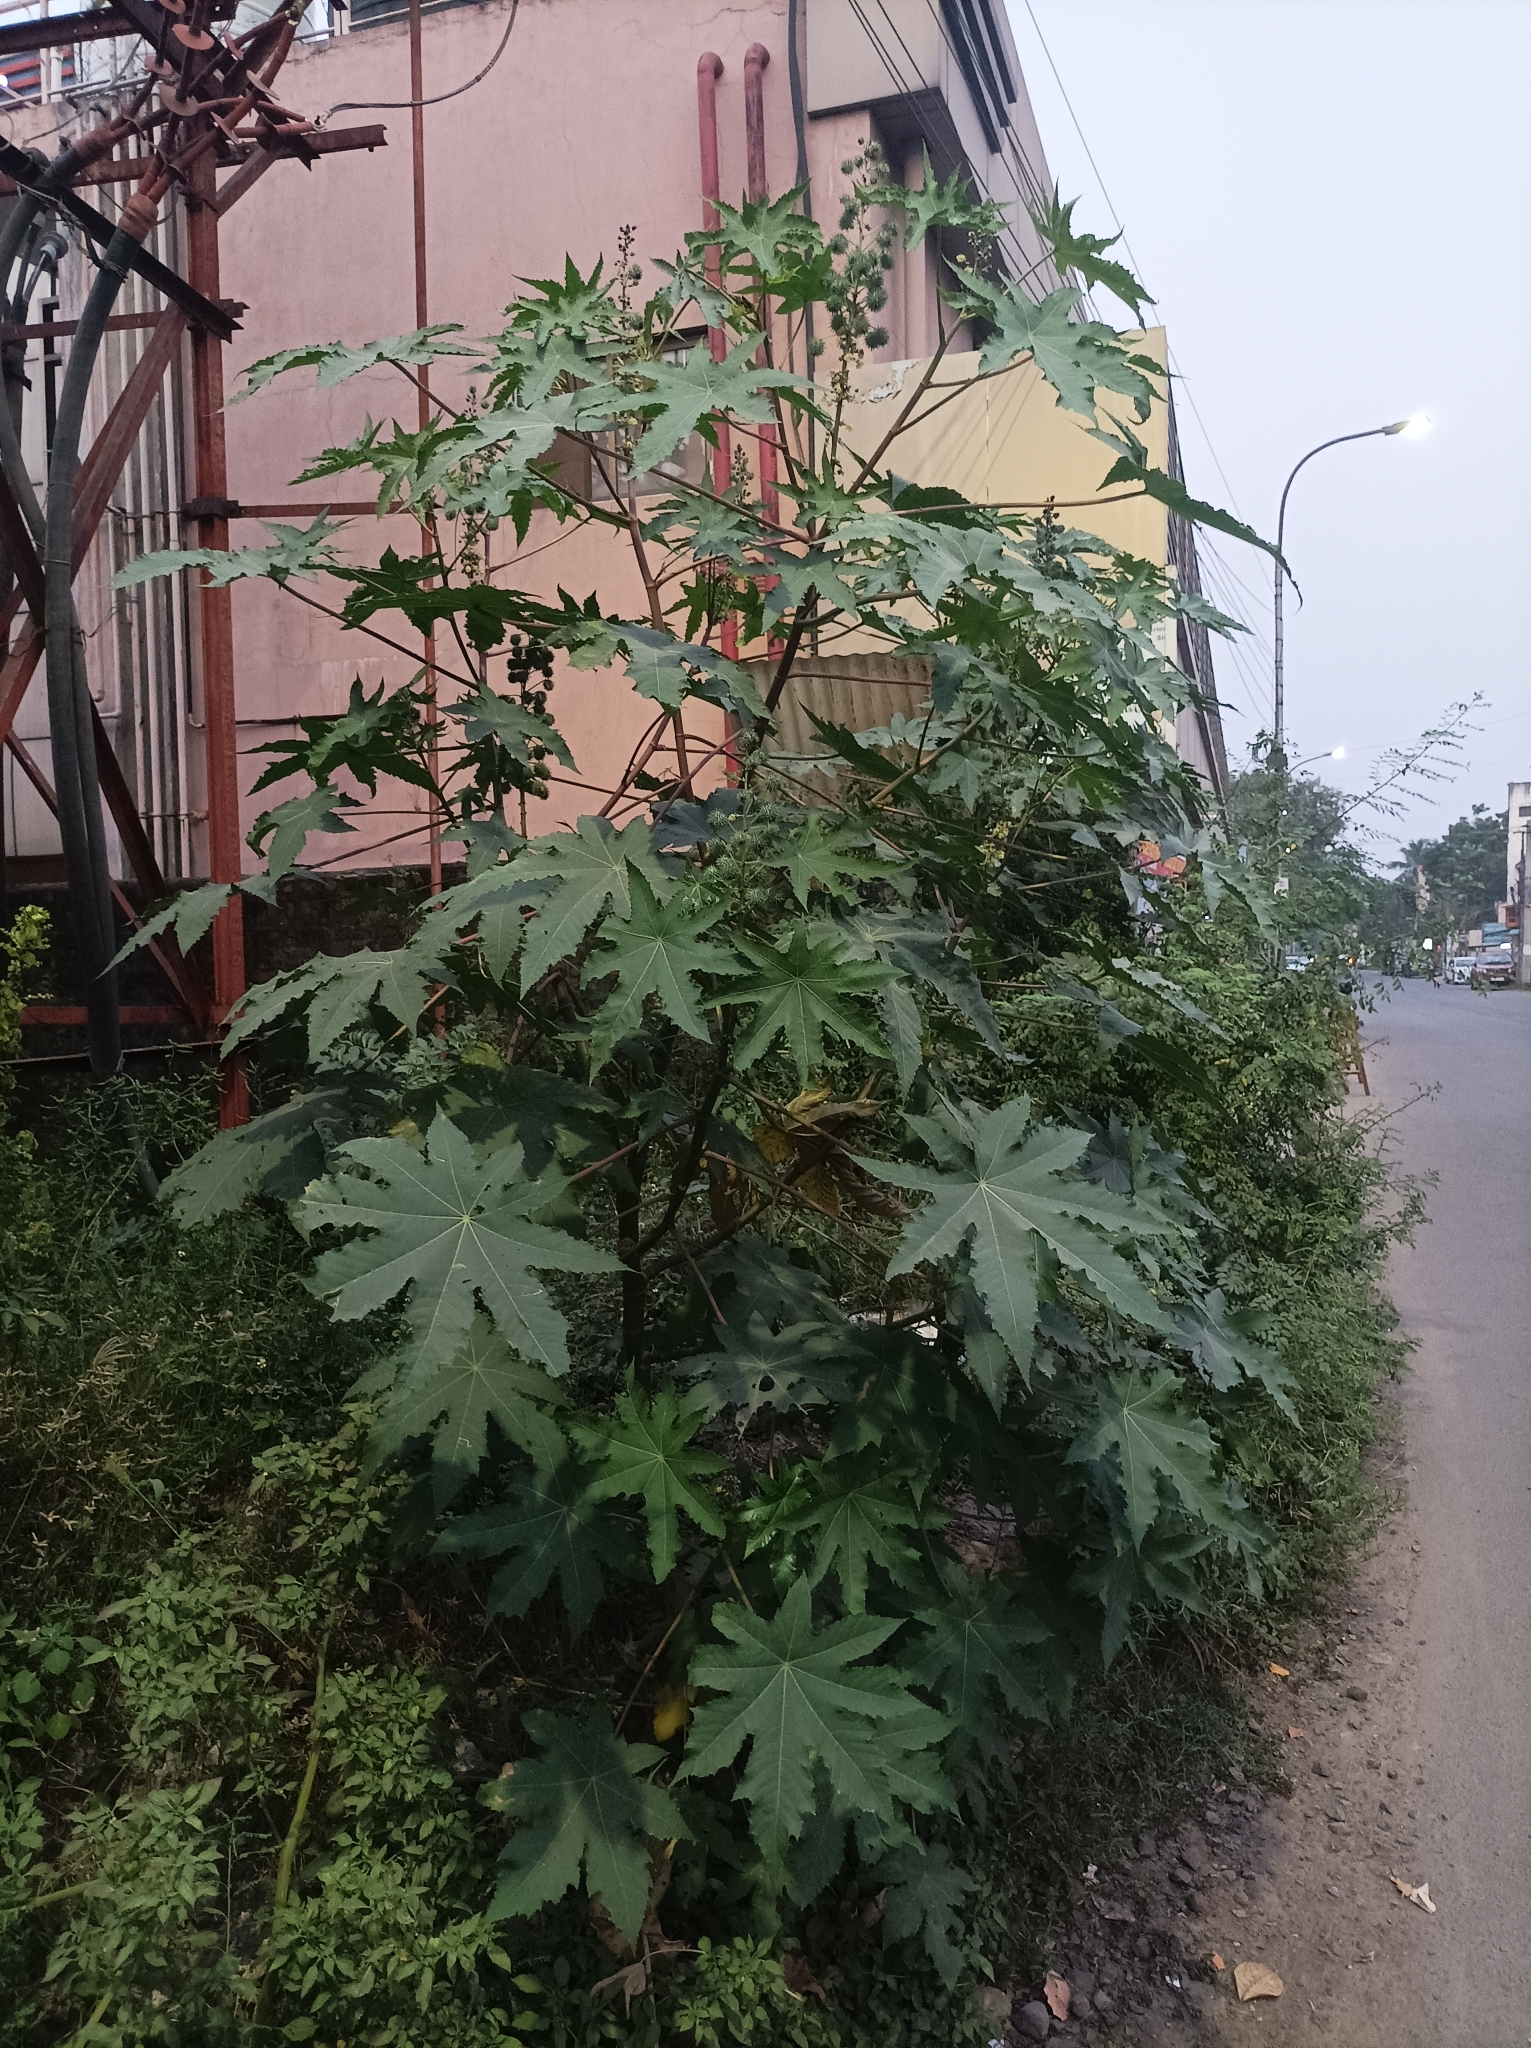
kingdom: Plantae
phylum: Tracheophyta
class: Magnoliopsida
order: Malpighiales
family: Euphorbiaceae
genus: Ricinus
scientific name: Ricinus communis
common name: Castor-oil-plant
